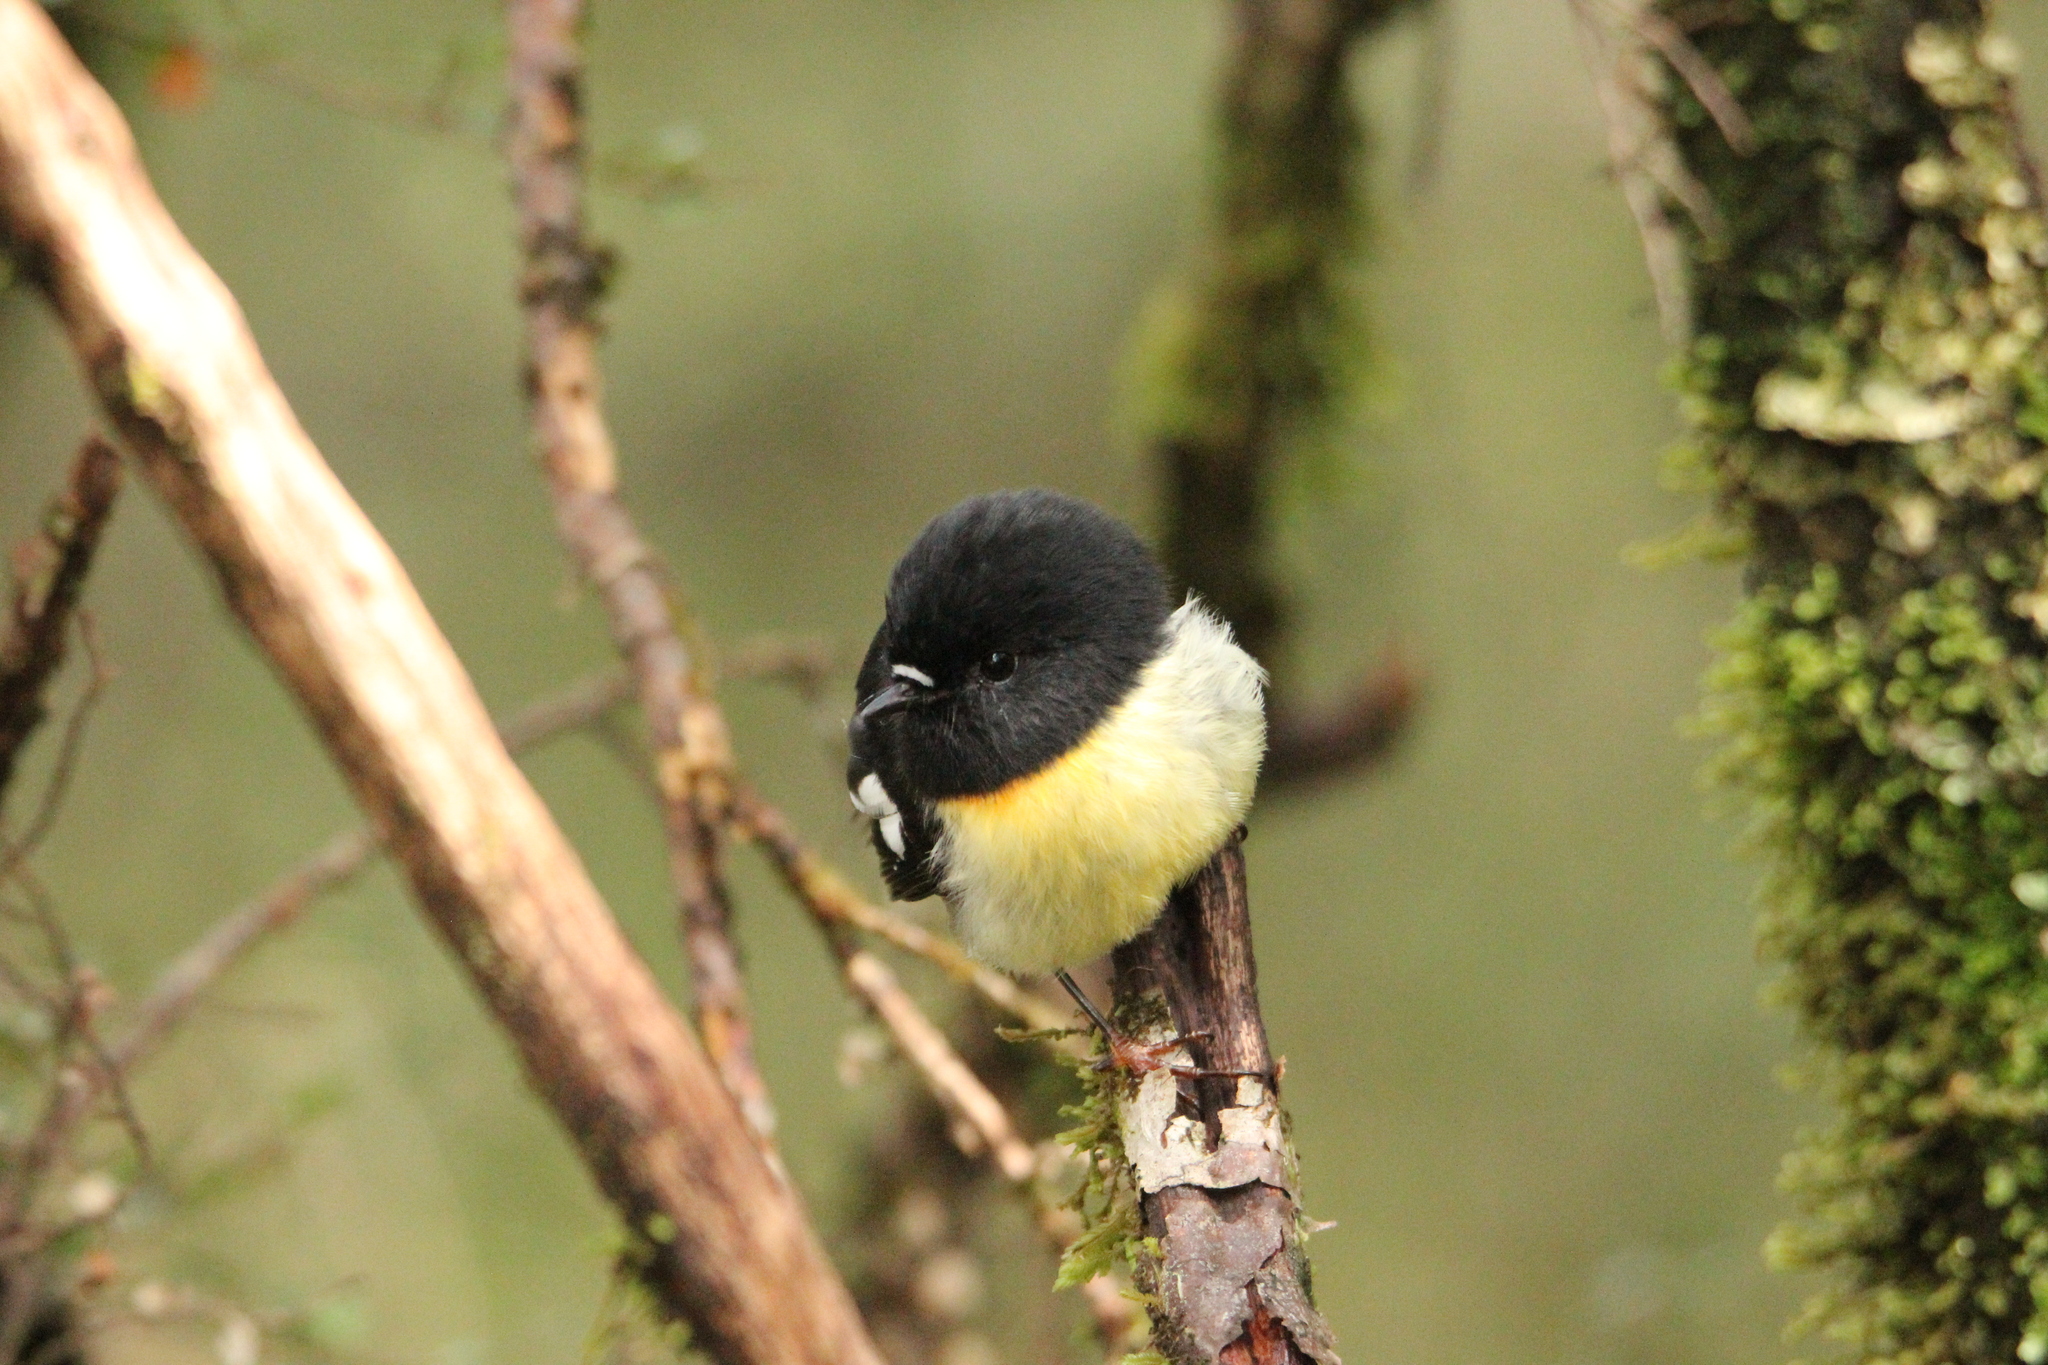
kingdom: Animalia
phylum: Chordata
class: Aves
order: Passeriformes
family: Petroicidae
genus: Petroica
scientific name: Petroica macrocephala
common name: Tomtit
